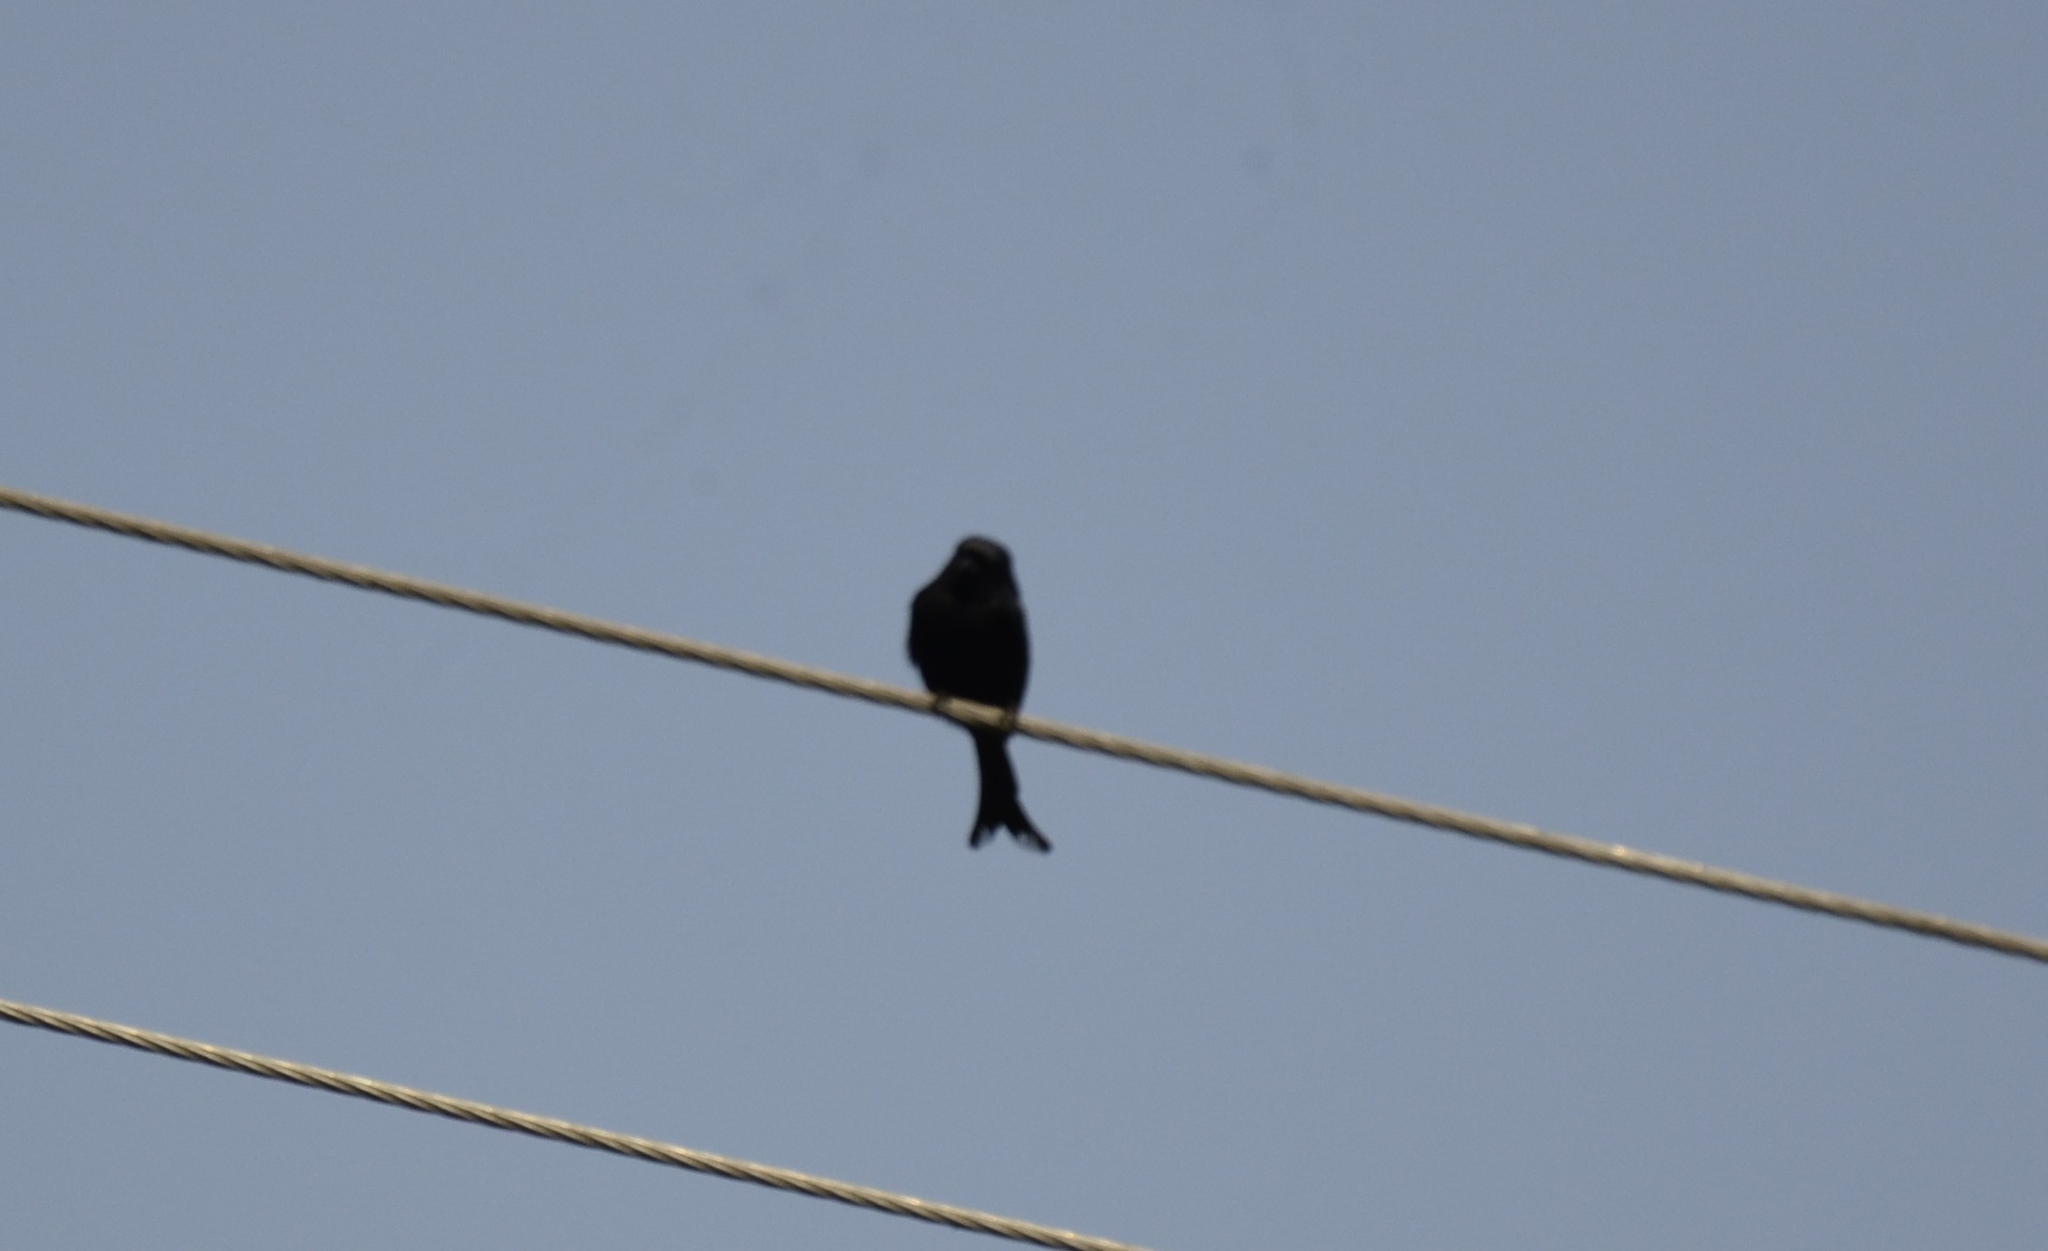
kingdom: Animalia
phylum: Chordata
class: Aves
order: Passeriformes
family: Dicruridae
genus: Dicrurus
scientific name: Dicrurus macrocercus
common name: Black drongo
